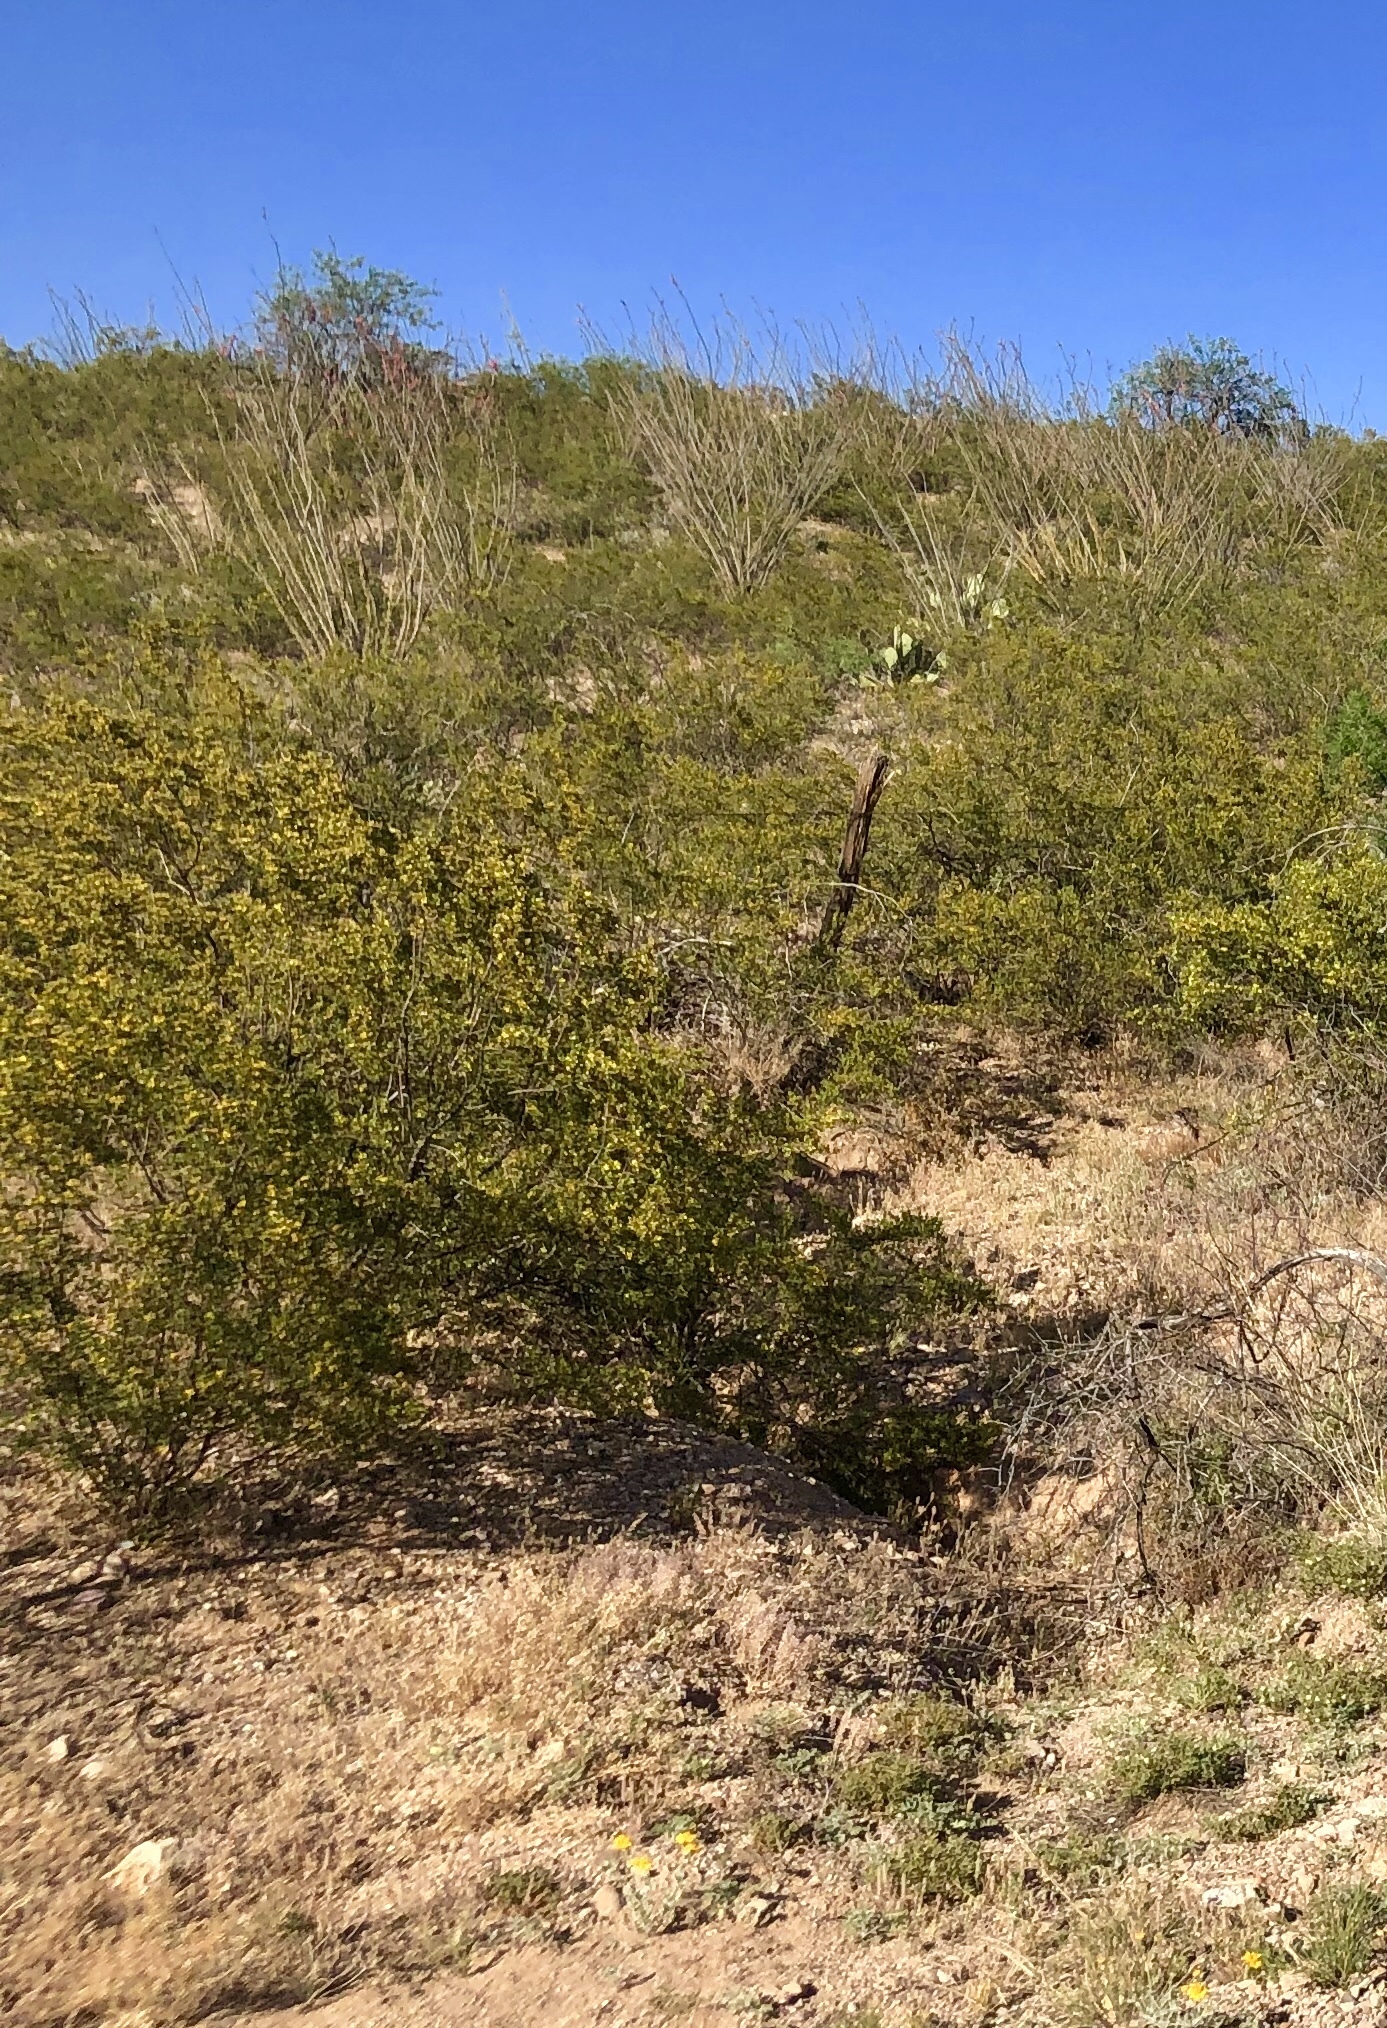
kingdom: Plantae
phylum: Tracheophyta
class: Magnoliopsida
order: Zygophyllales
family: Zygophyllaceae
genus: Larrea
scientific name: Larrea tridentata
